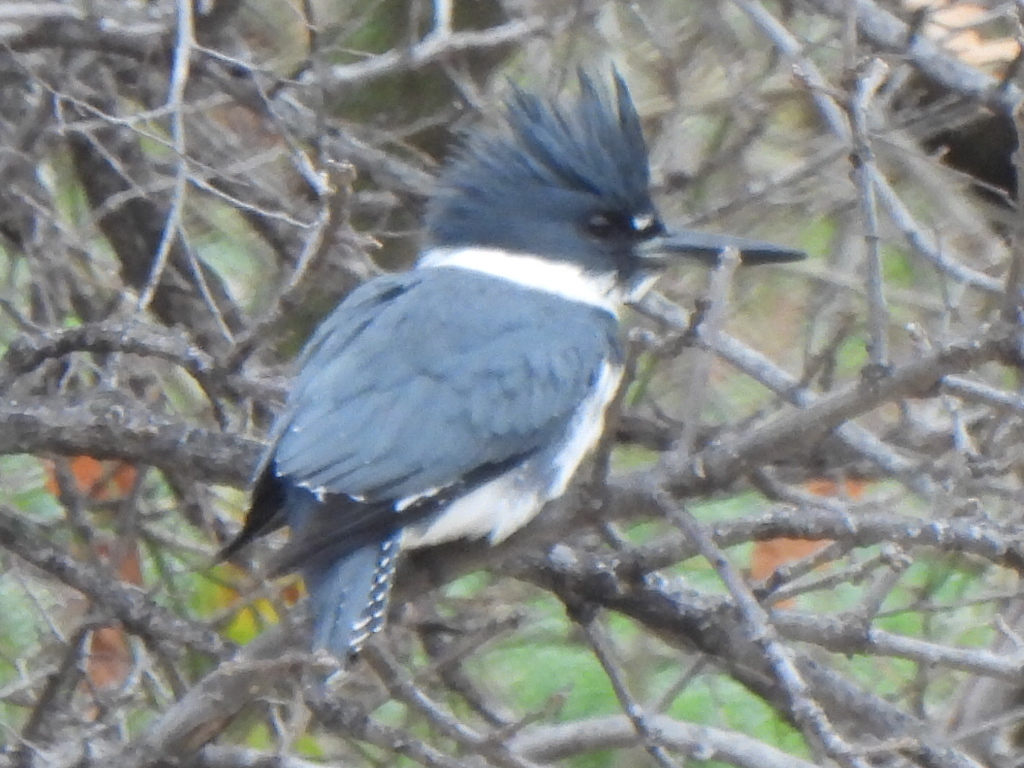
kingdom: Animalia
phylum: Chordata
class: Aves
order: Coraciiformes
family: Alcedinidae
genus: Megaceryle
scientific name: Megaceryle alcyon
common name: Belted kingfisher
